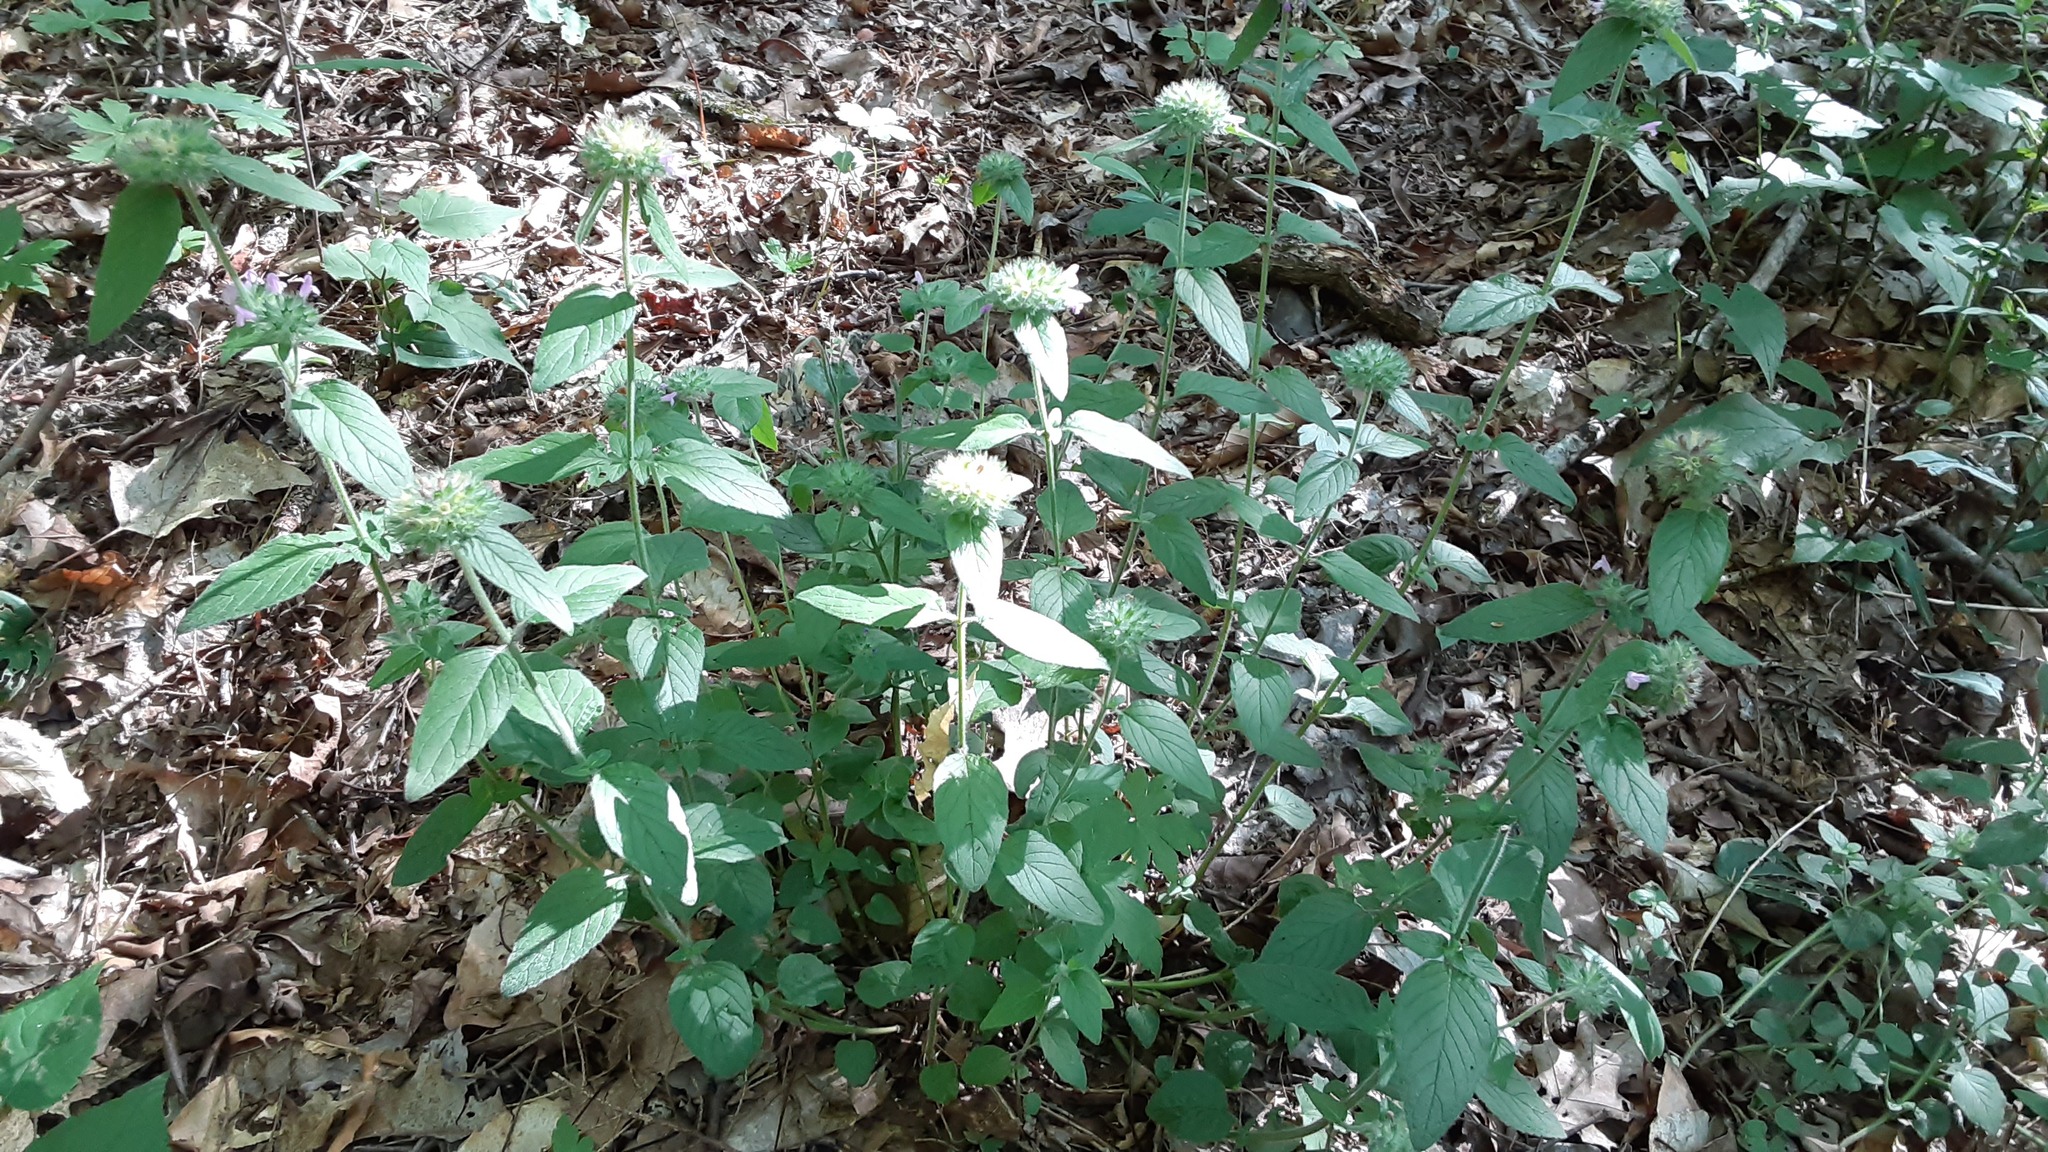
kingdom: Plantae
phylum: Tracheophyta
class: Magnoliopsida
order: Lamiales
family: Lamiaceae
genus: Clinopodium
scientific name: Clinopodium vulgare
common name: Wild basil
